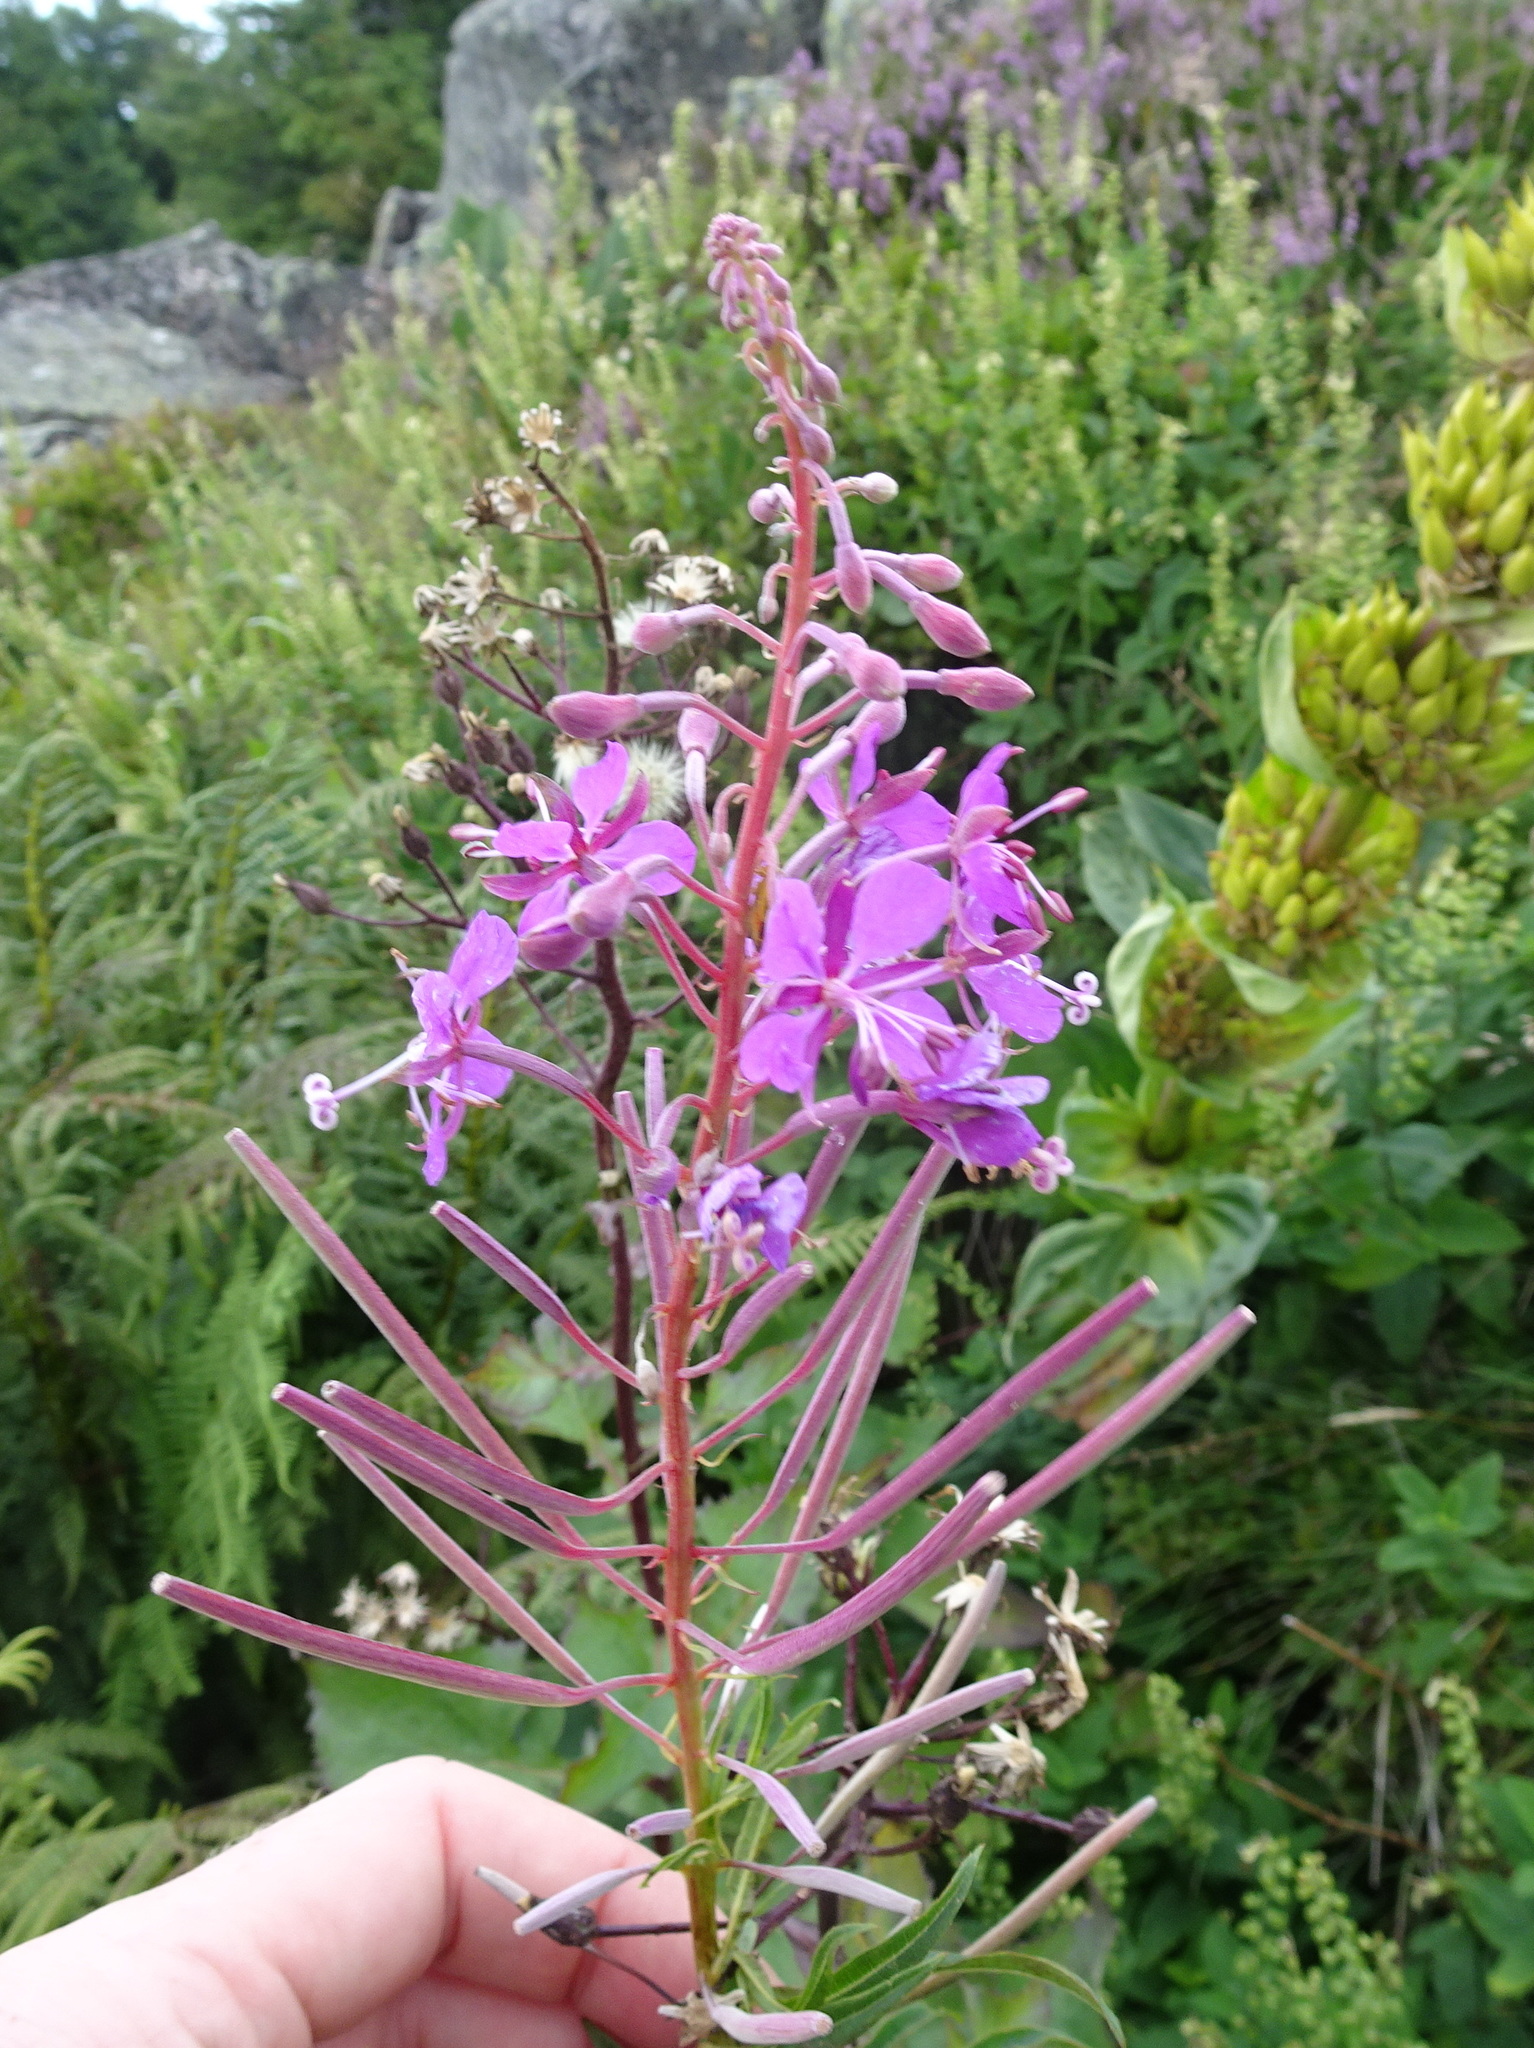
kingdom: Plantae
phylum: Tracheophyta
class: Magnoliopsida
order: Myrtales
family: Onagraceae
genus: Chamaenerion
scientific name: Chamaenerion angustifolium
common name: Fireweed
